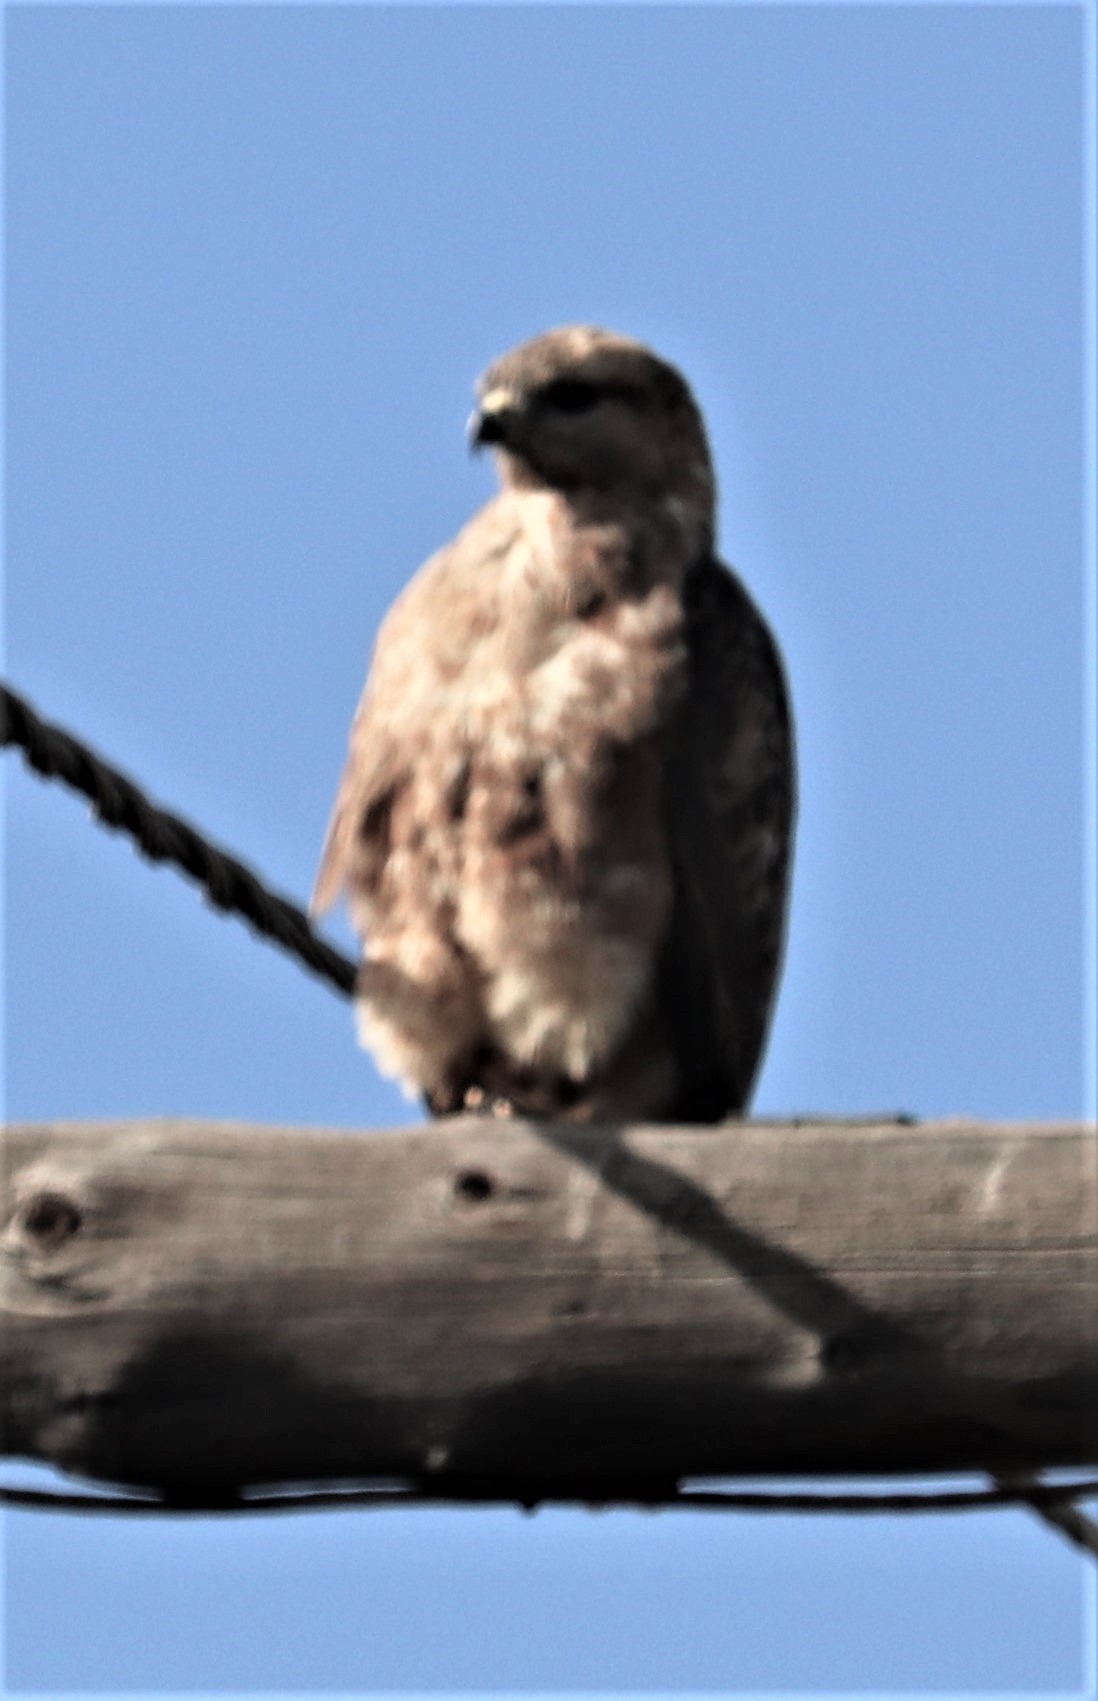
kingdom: Animalia
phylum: Chordata
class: Aves
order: Accipitriformes
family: Accipitridae
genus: Buteo
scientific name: Buteo buteo
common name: Common buzzard
